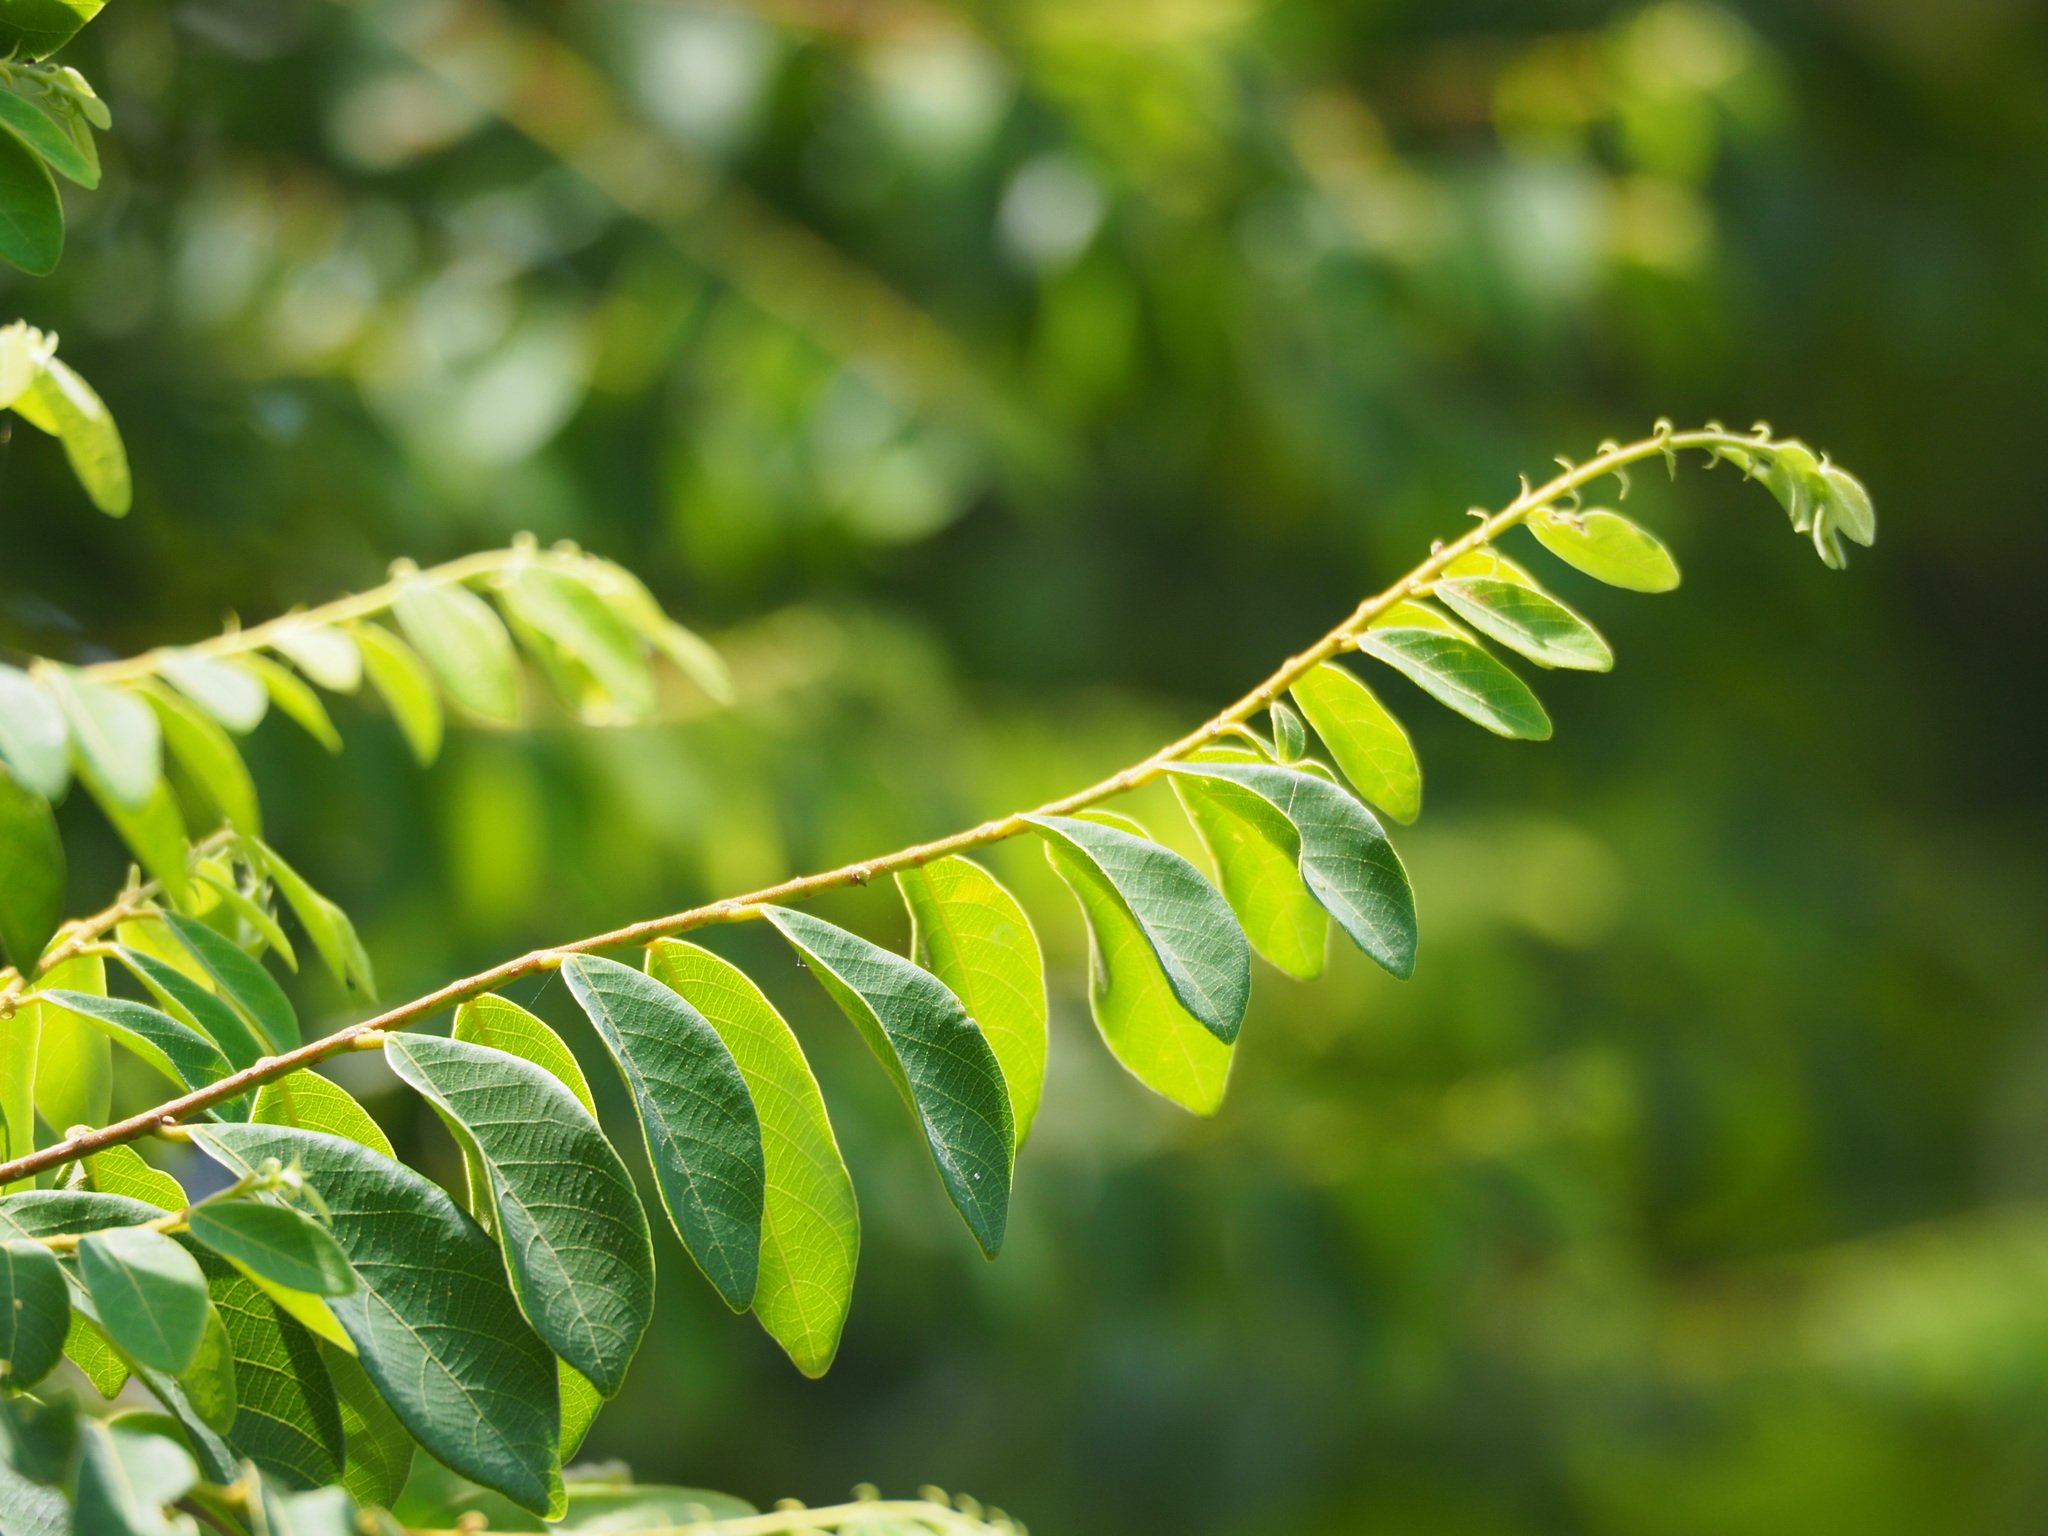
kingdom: Plantae
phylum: Tracheophyta
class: Magnoliopsida
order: Malpighiales
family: Phyllanthaceae
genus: Bridelia
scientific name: Bridelia tomentosa
